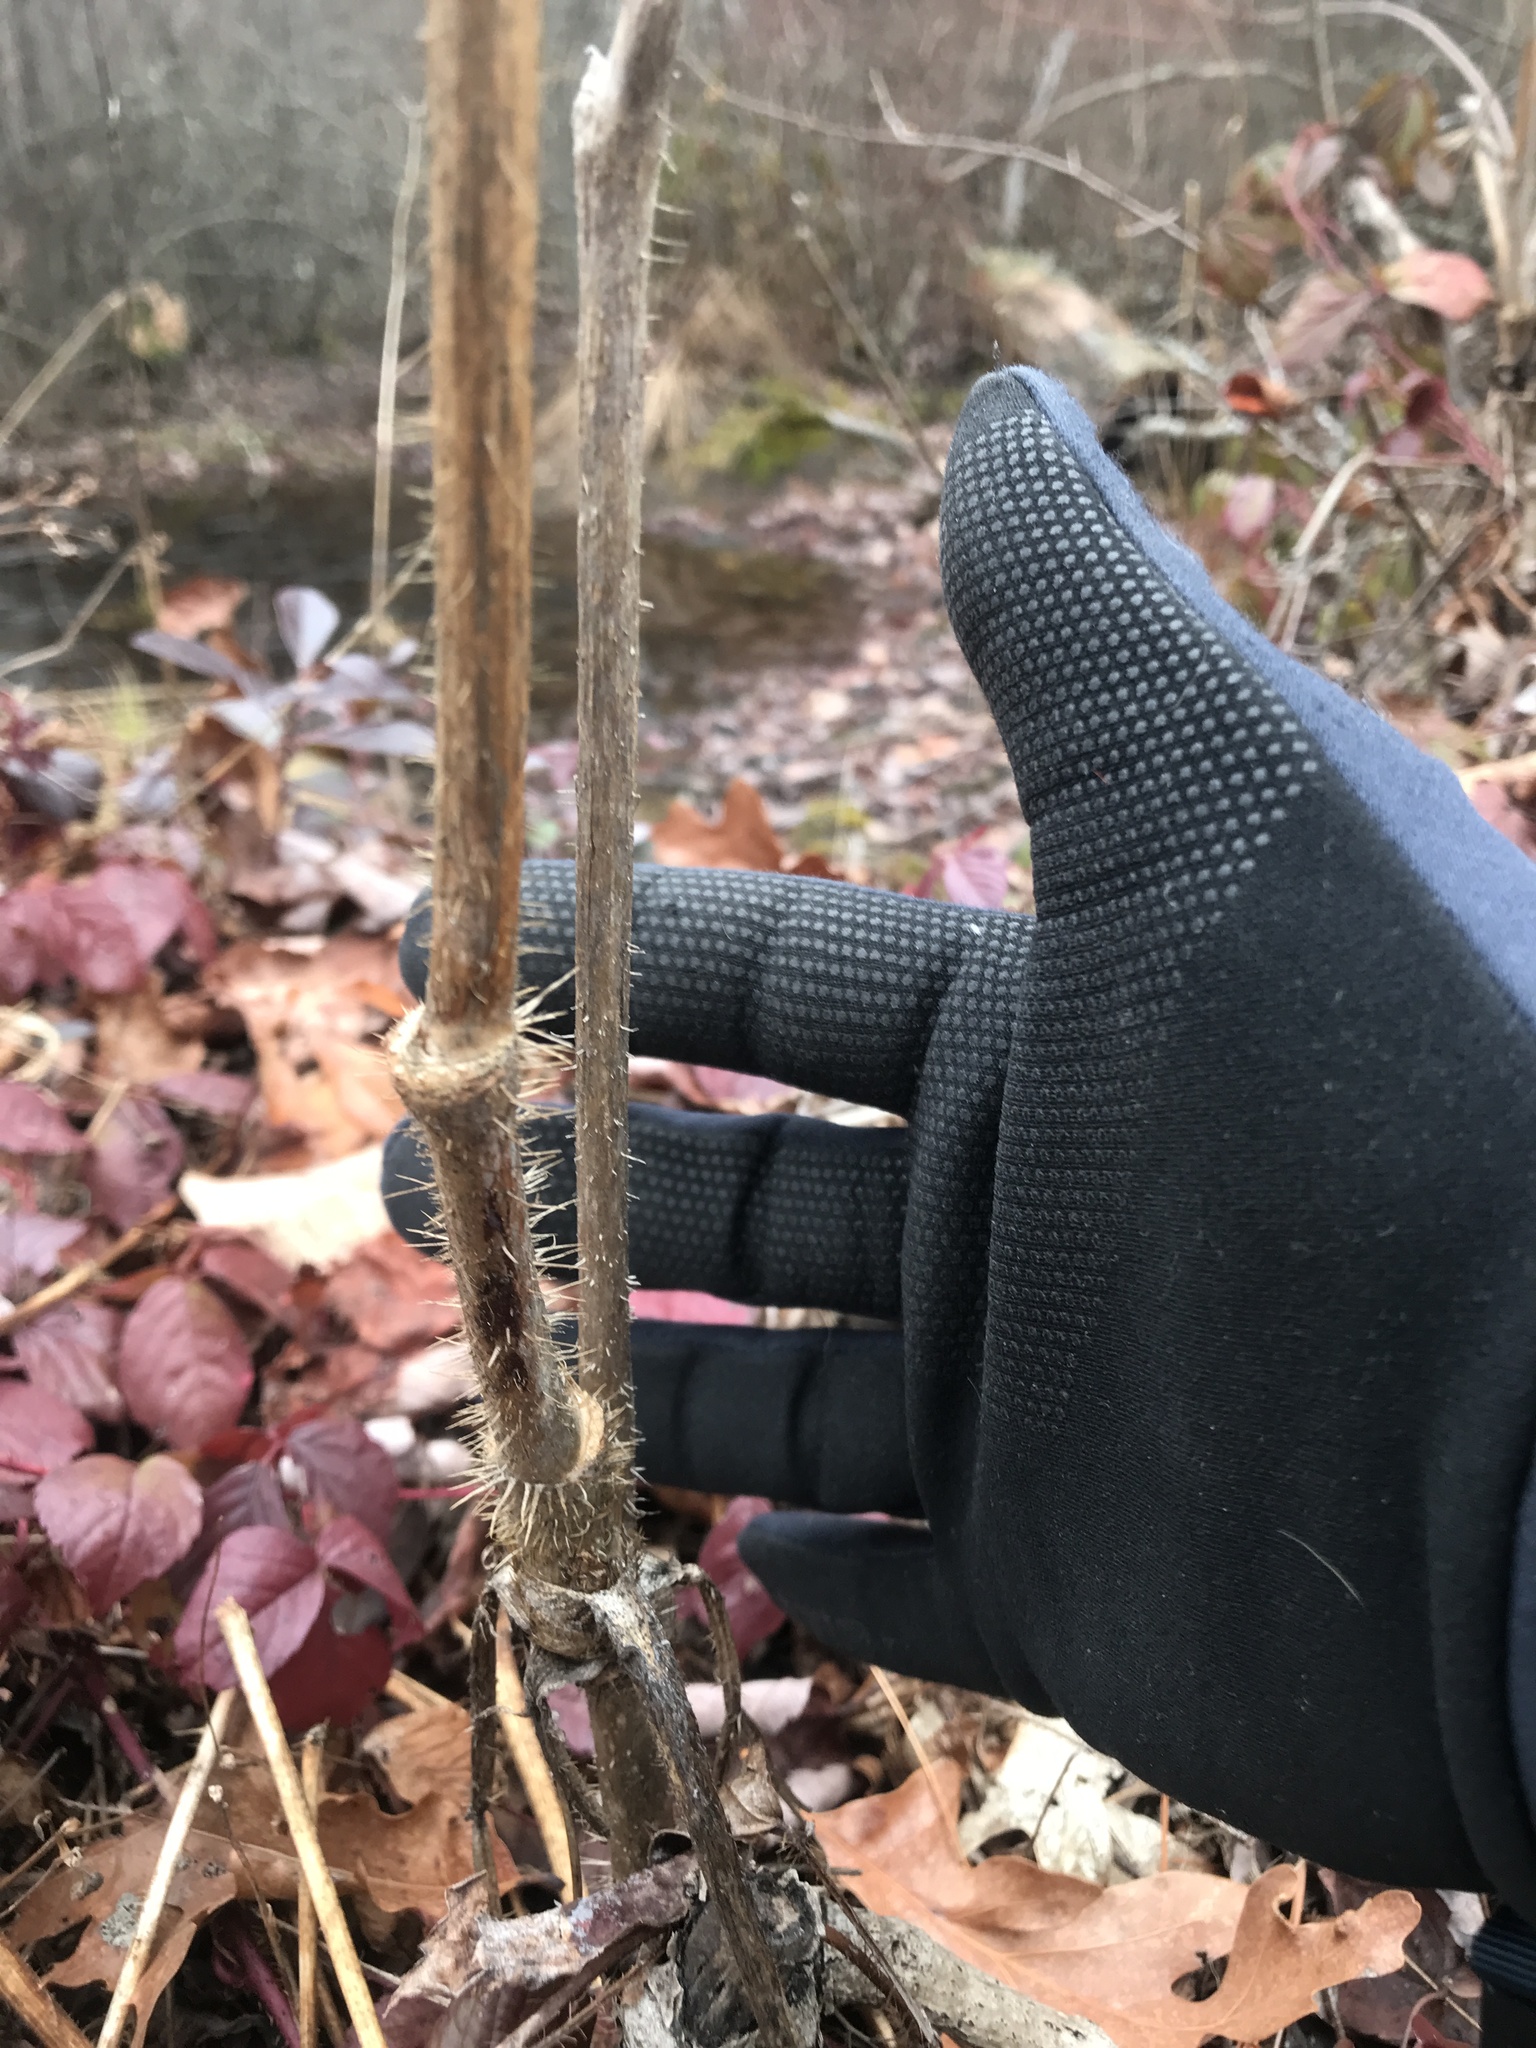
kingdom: Plantae
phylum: Tracheophyta
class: Magnoliopsida
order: Apiales
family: Araliaceae
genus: Aralia
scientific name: Aralia hispida
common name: Bristly sarsaparilla
